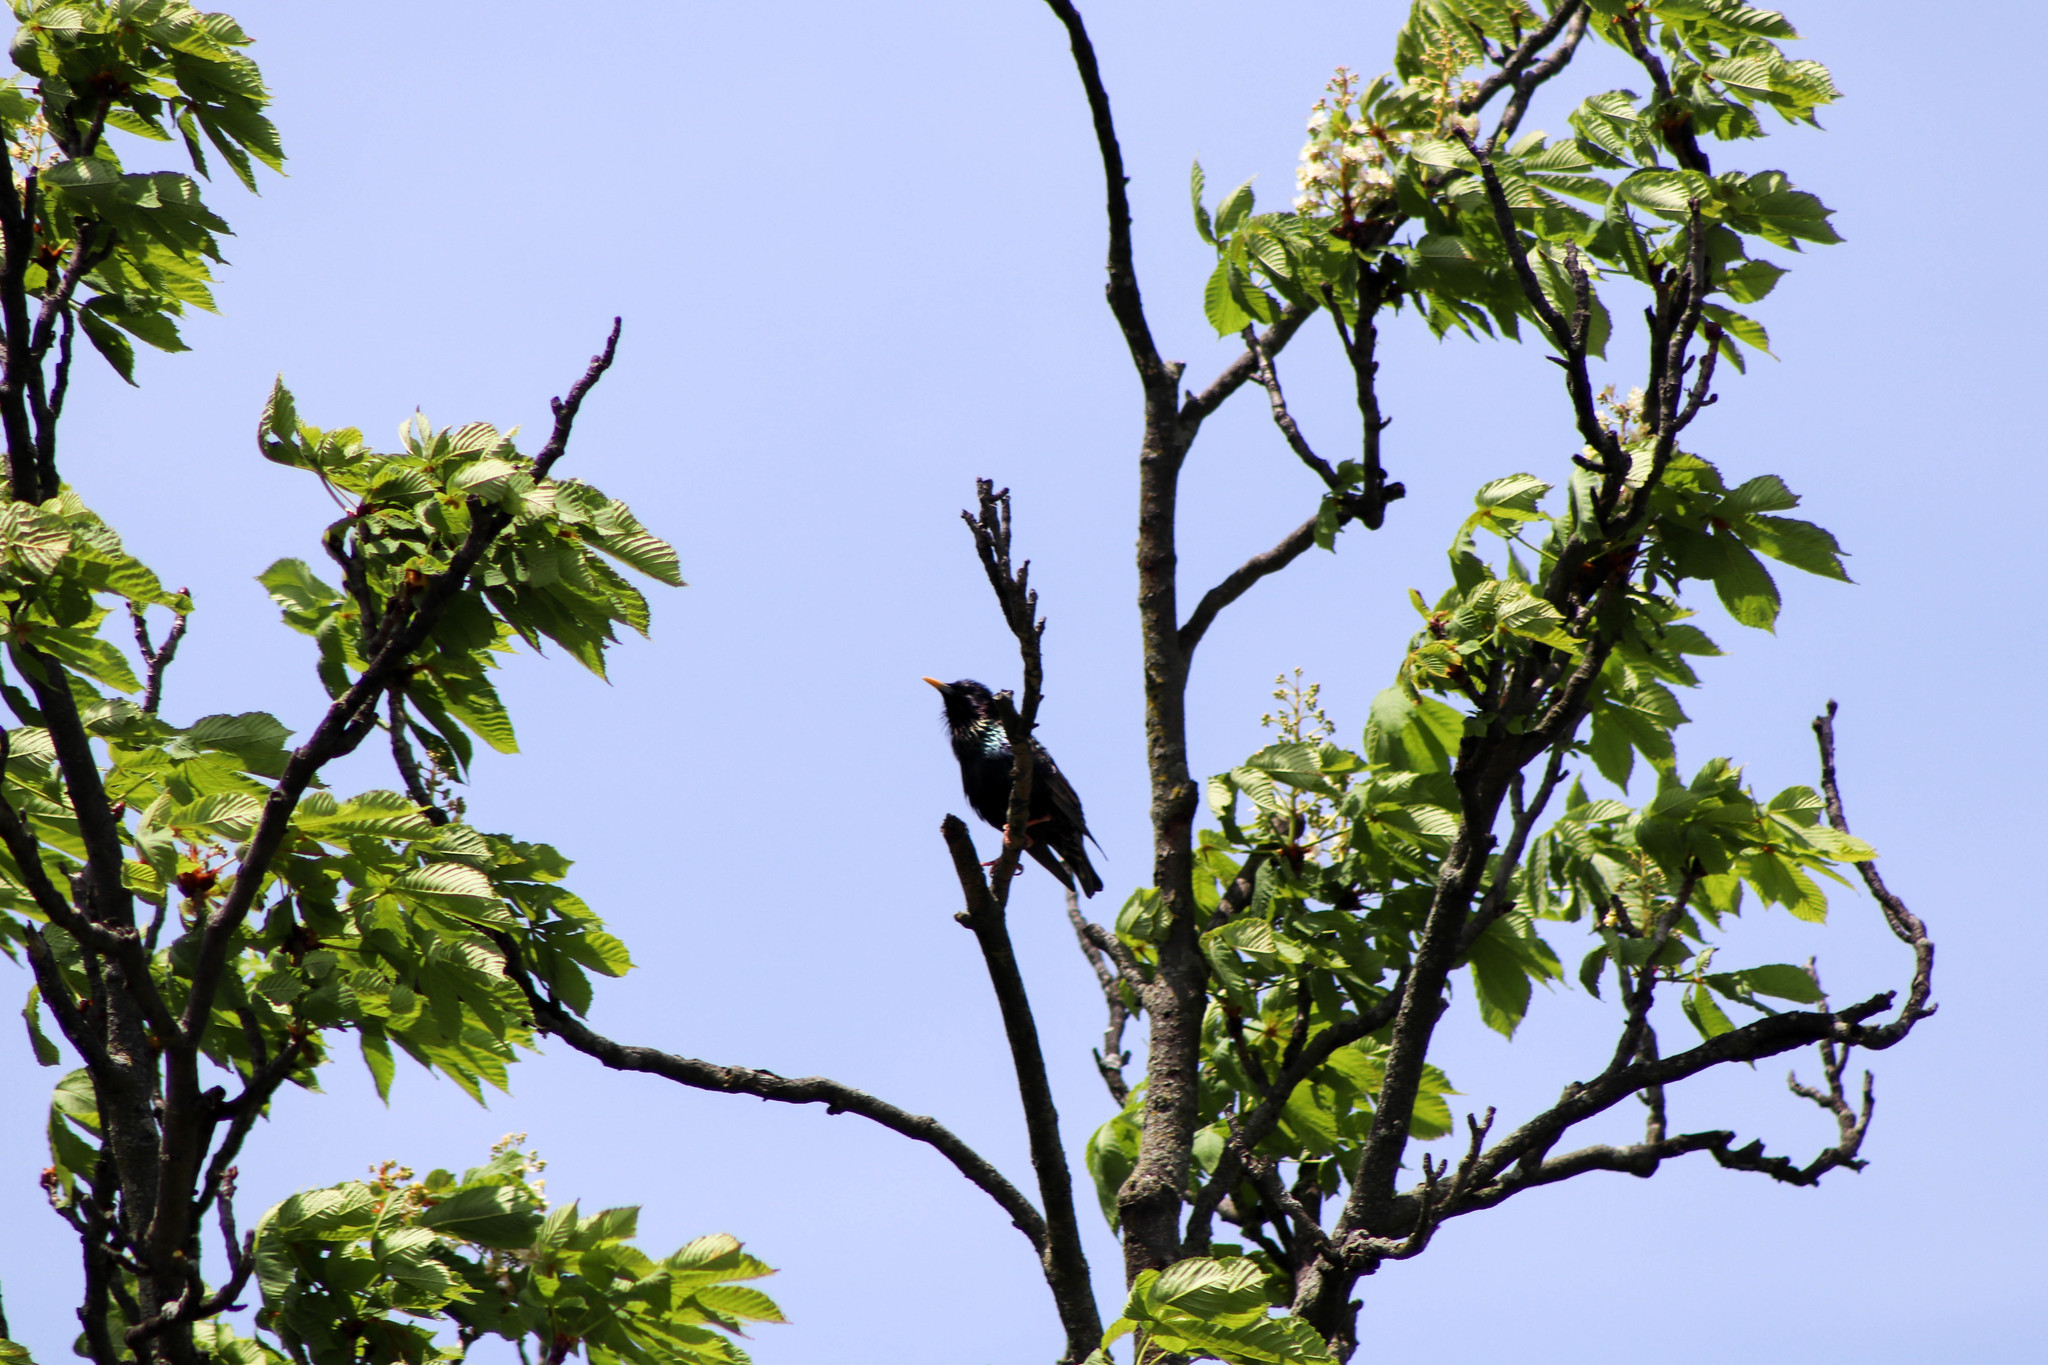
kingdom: Animalia
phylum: Chordata
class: Aves
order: Passeriformes
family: Sturnidae
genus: Sturnus
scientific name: Sturnus vulgaris
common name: Common starling
